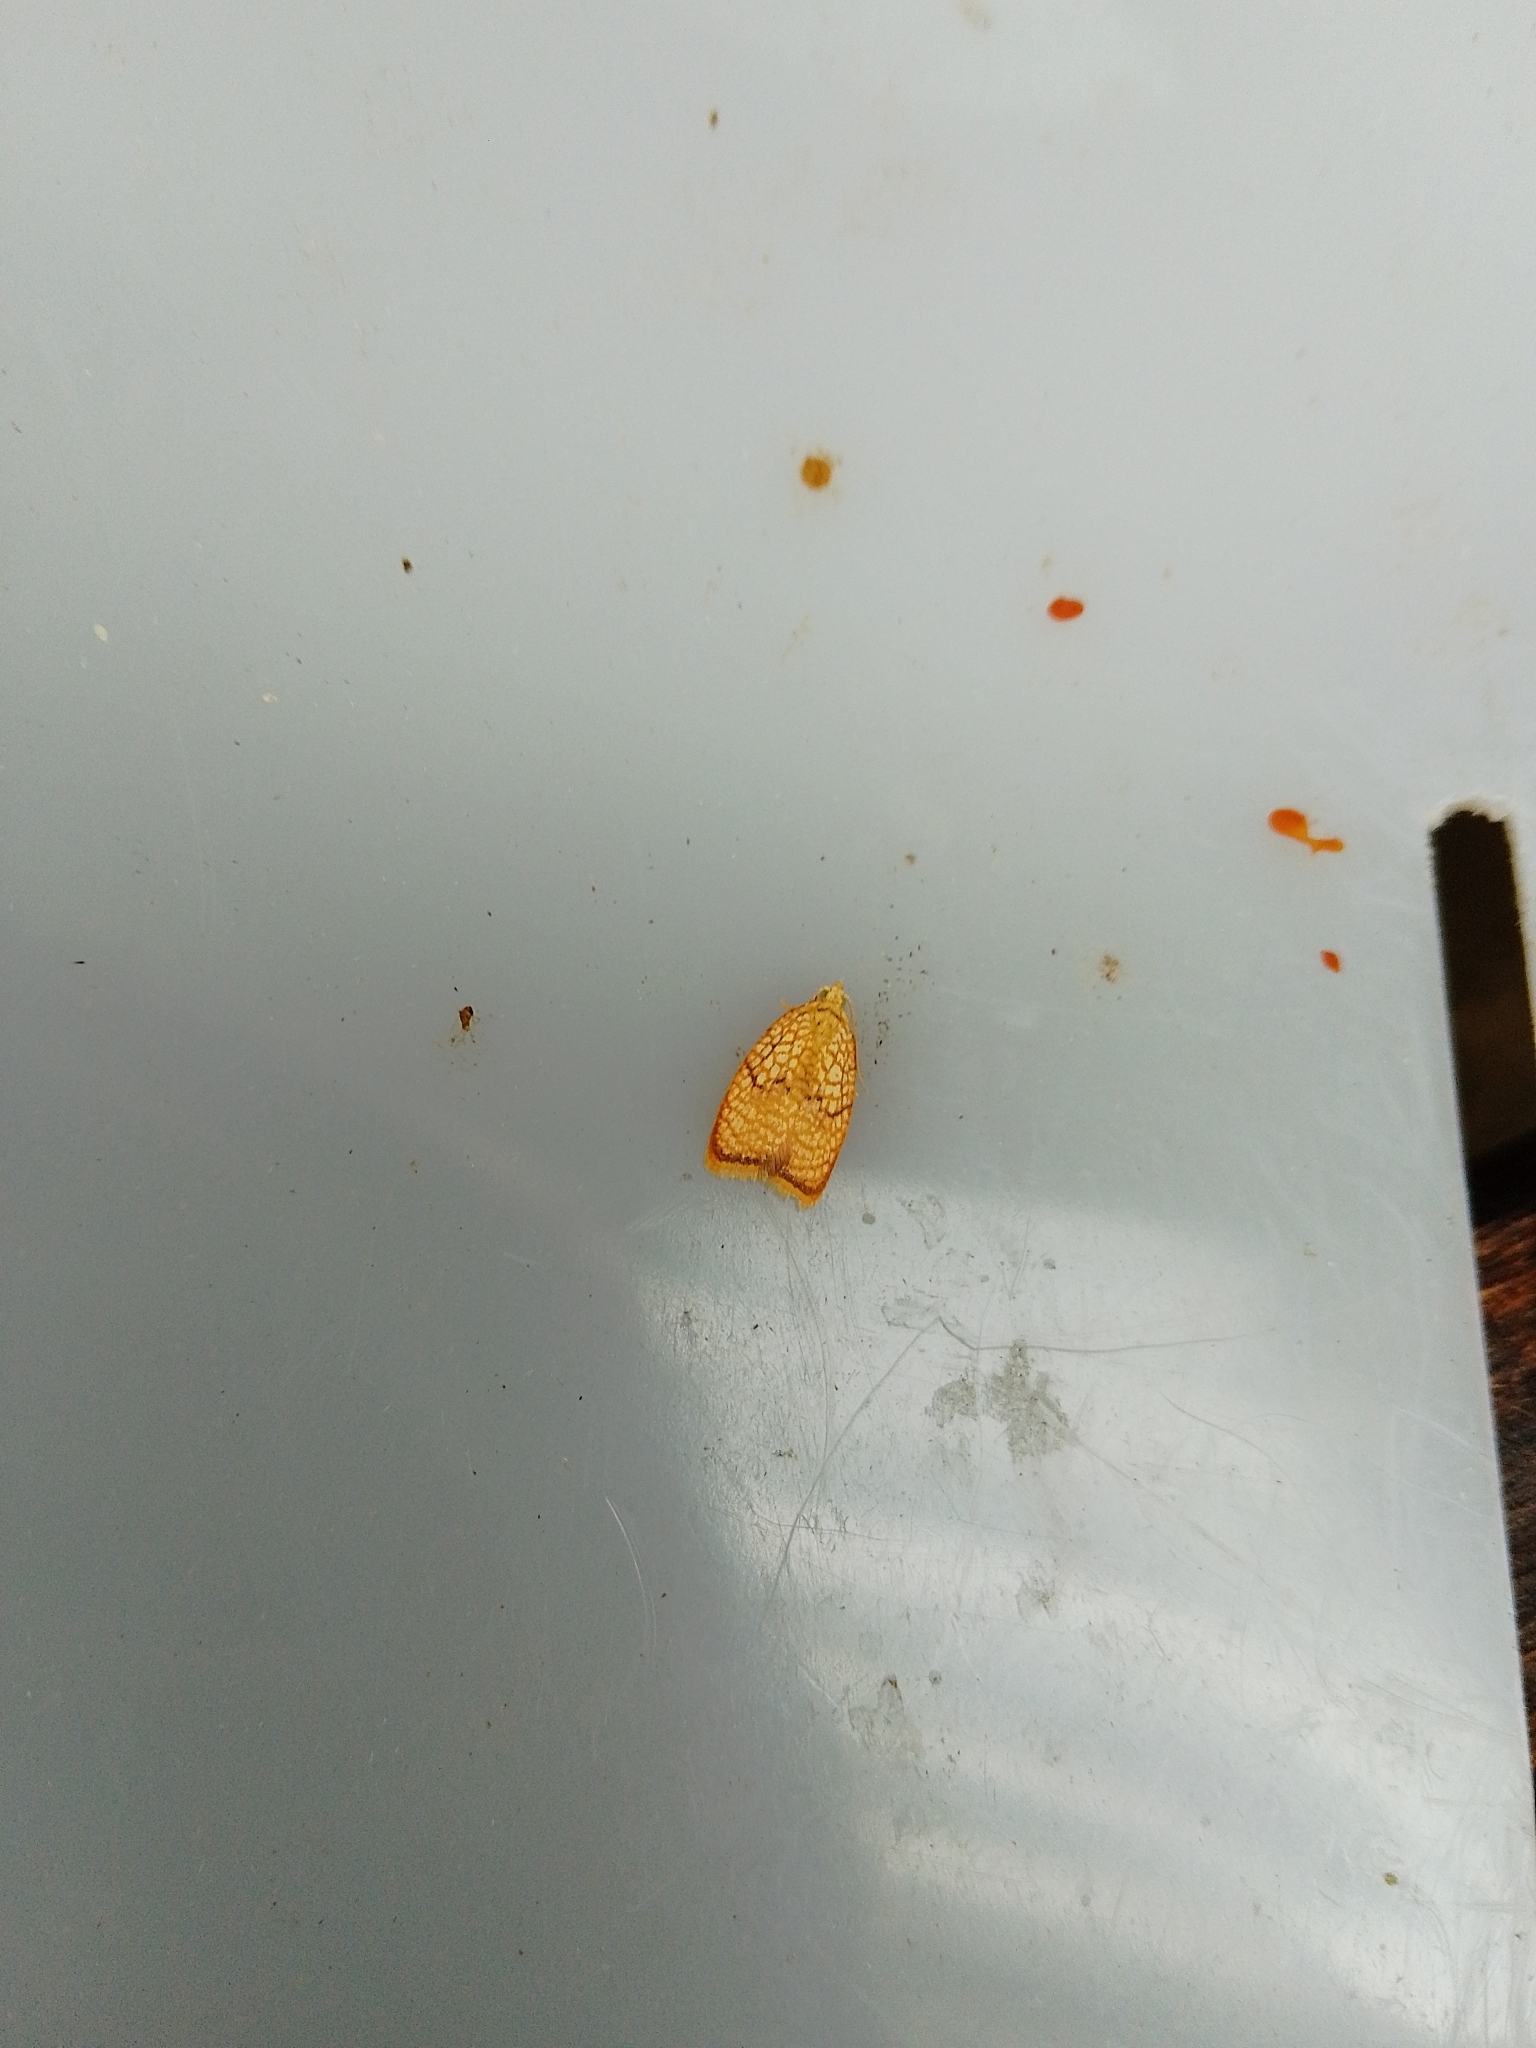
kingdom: Animalia
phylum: Arthropoda
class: Insecta
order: Lepidoptera
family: Tortricidae
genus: Acleris
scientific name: Acleris forsskaleana
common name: Maple button
